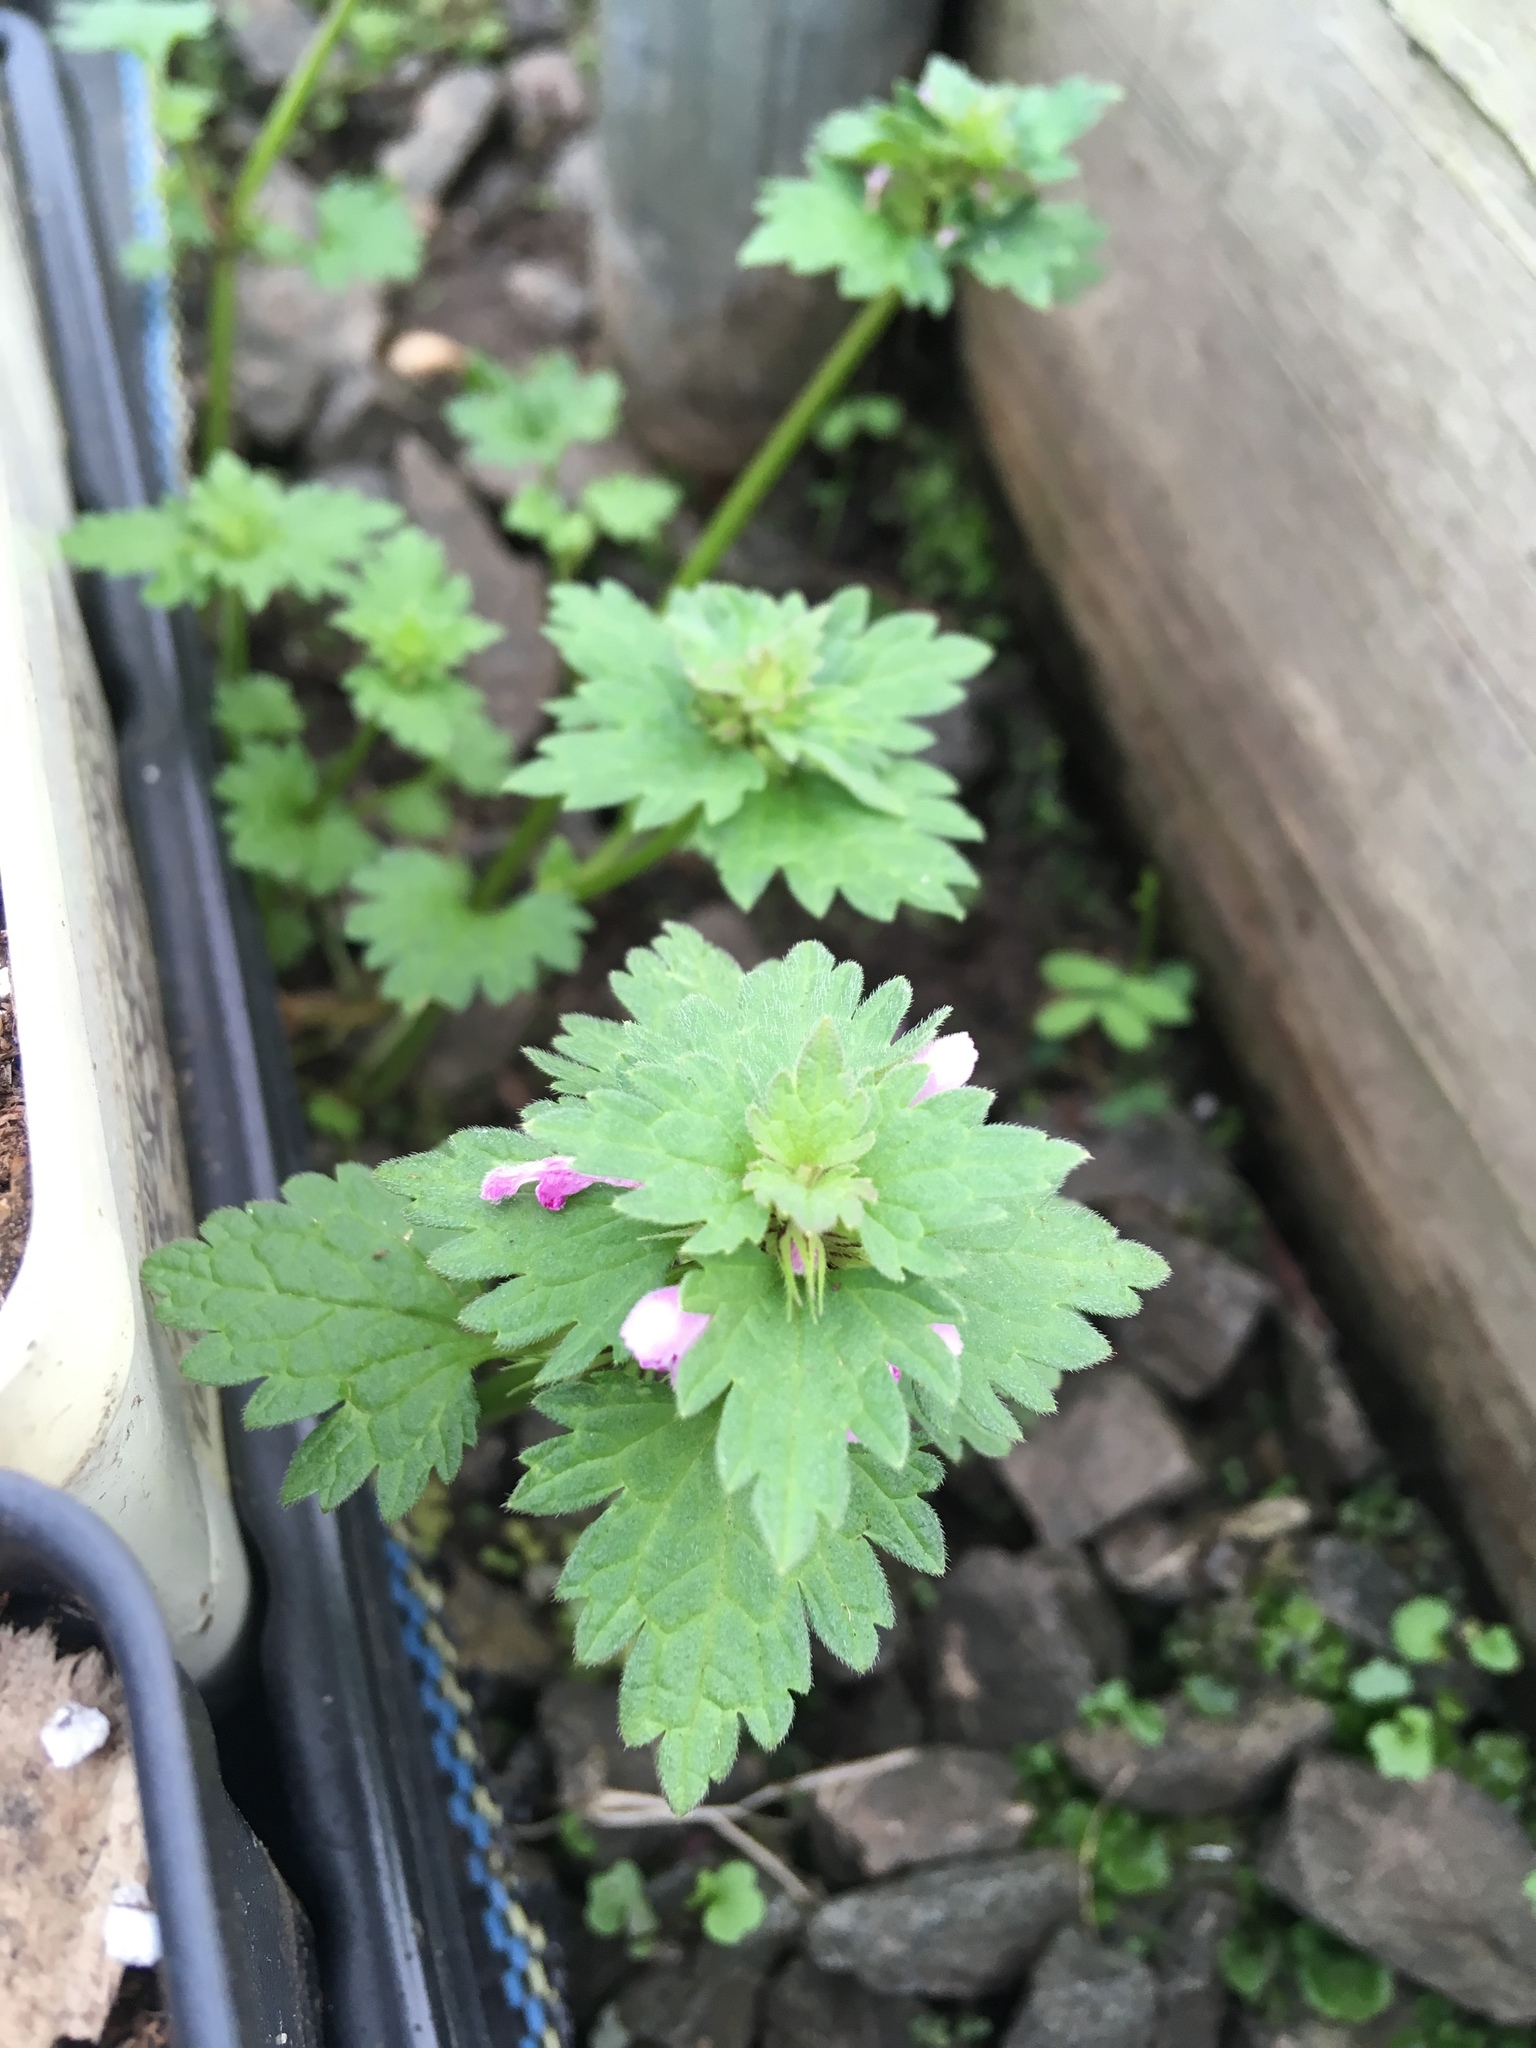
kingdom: Plantae
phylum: Tracheophyta
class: Magnoliopsida
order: Lamiales
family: Lamiaceae
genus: Lamium
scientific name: Lamium hybridum
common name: Cut-leaved dead-nettle
